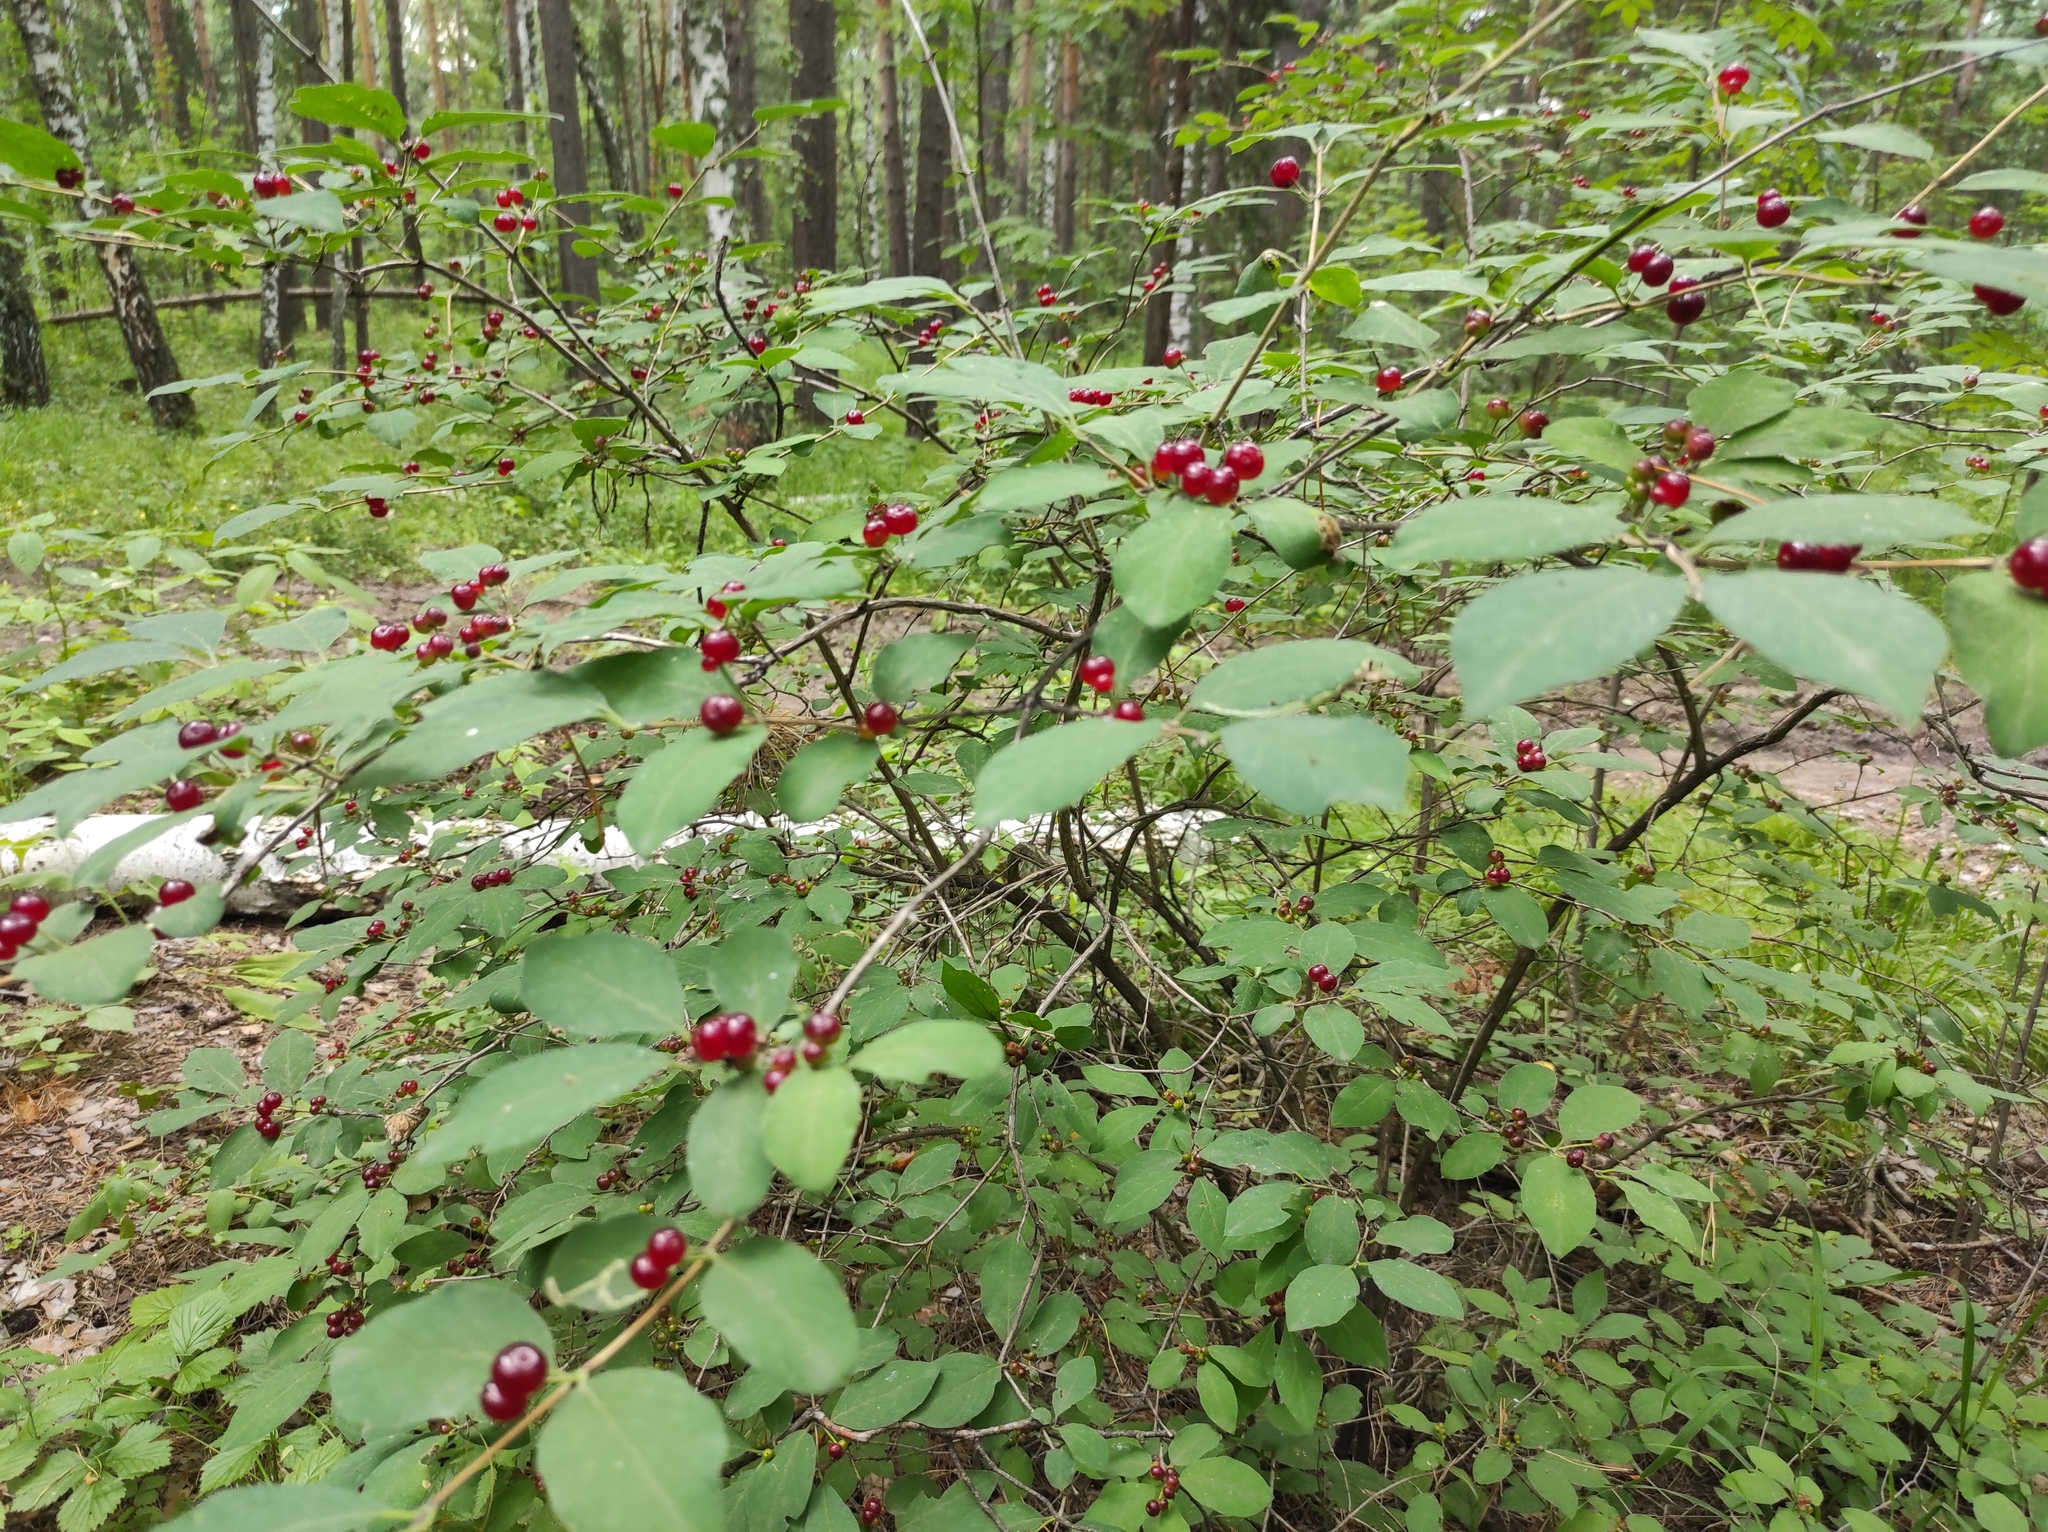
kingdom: Plantae
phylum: Tracheophyta
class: Magnoliopsida
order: Dipsacales
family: Caprifoliaceae
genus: Lonicera
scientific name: Lonicera xylosteum
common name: Fly honeysuckle
